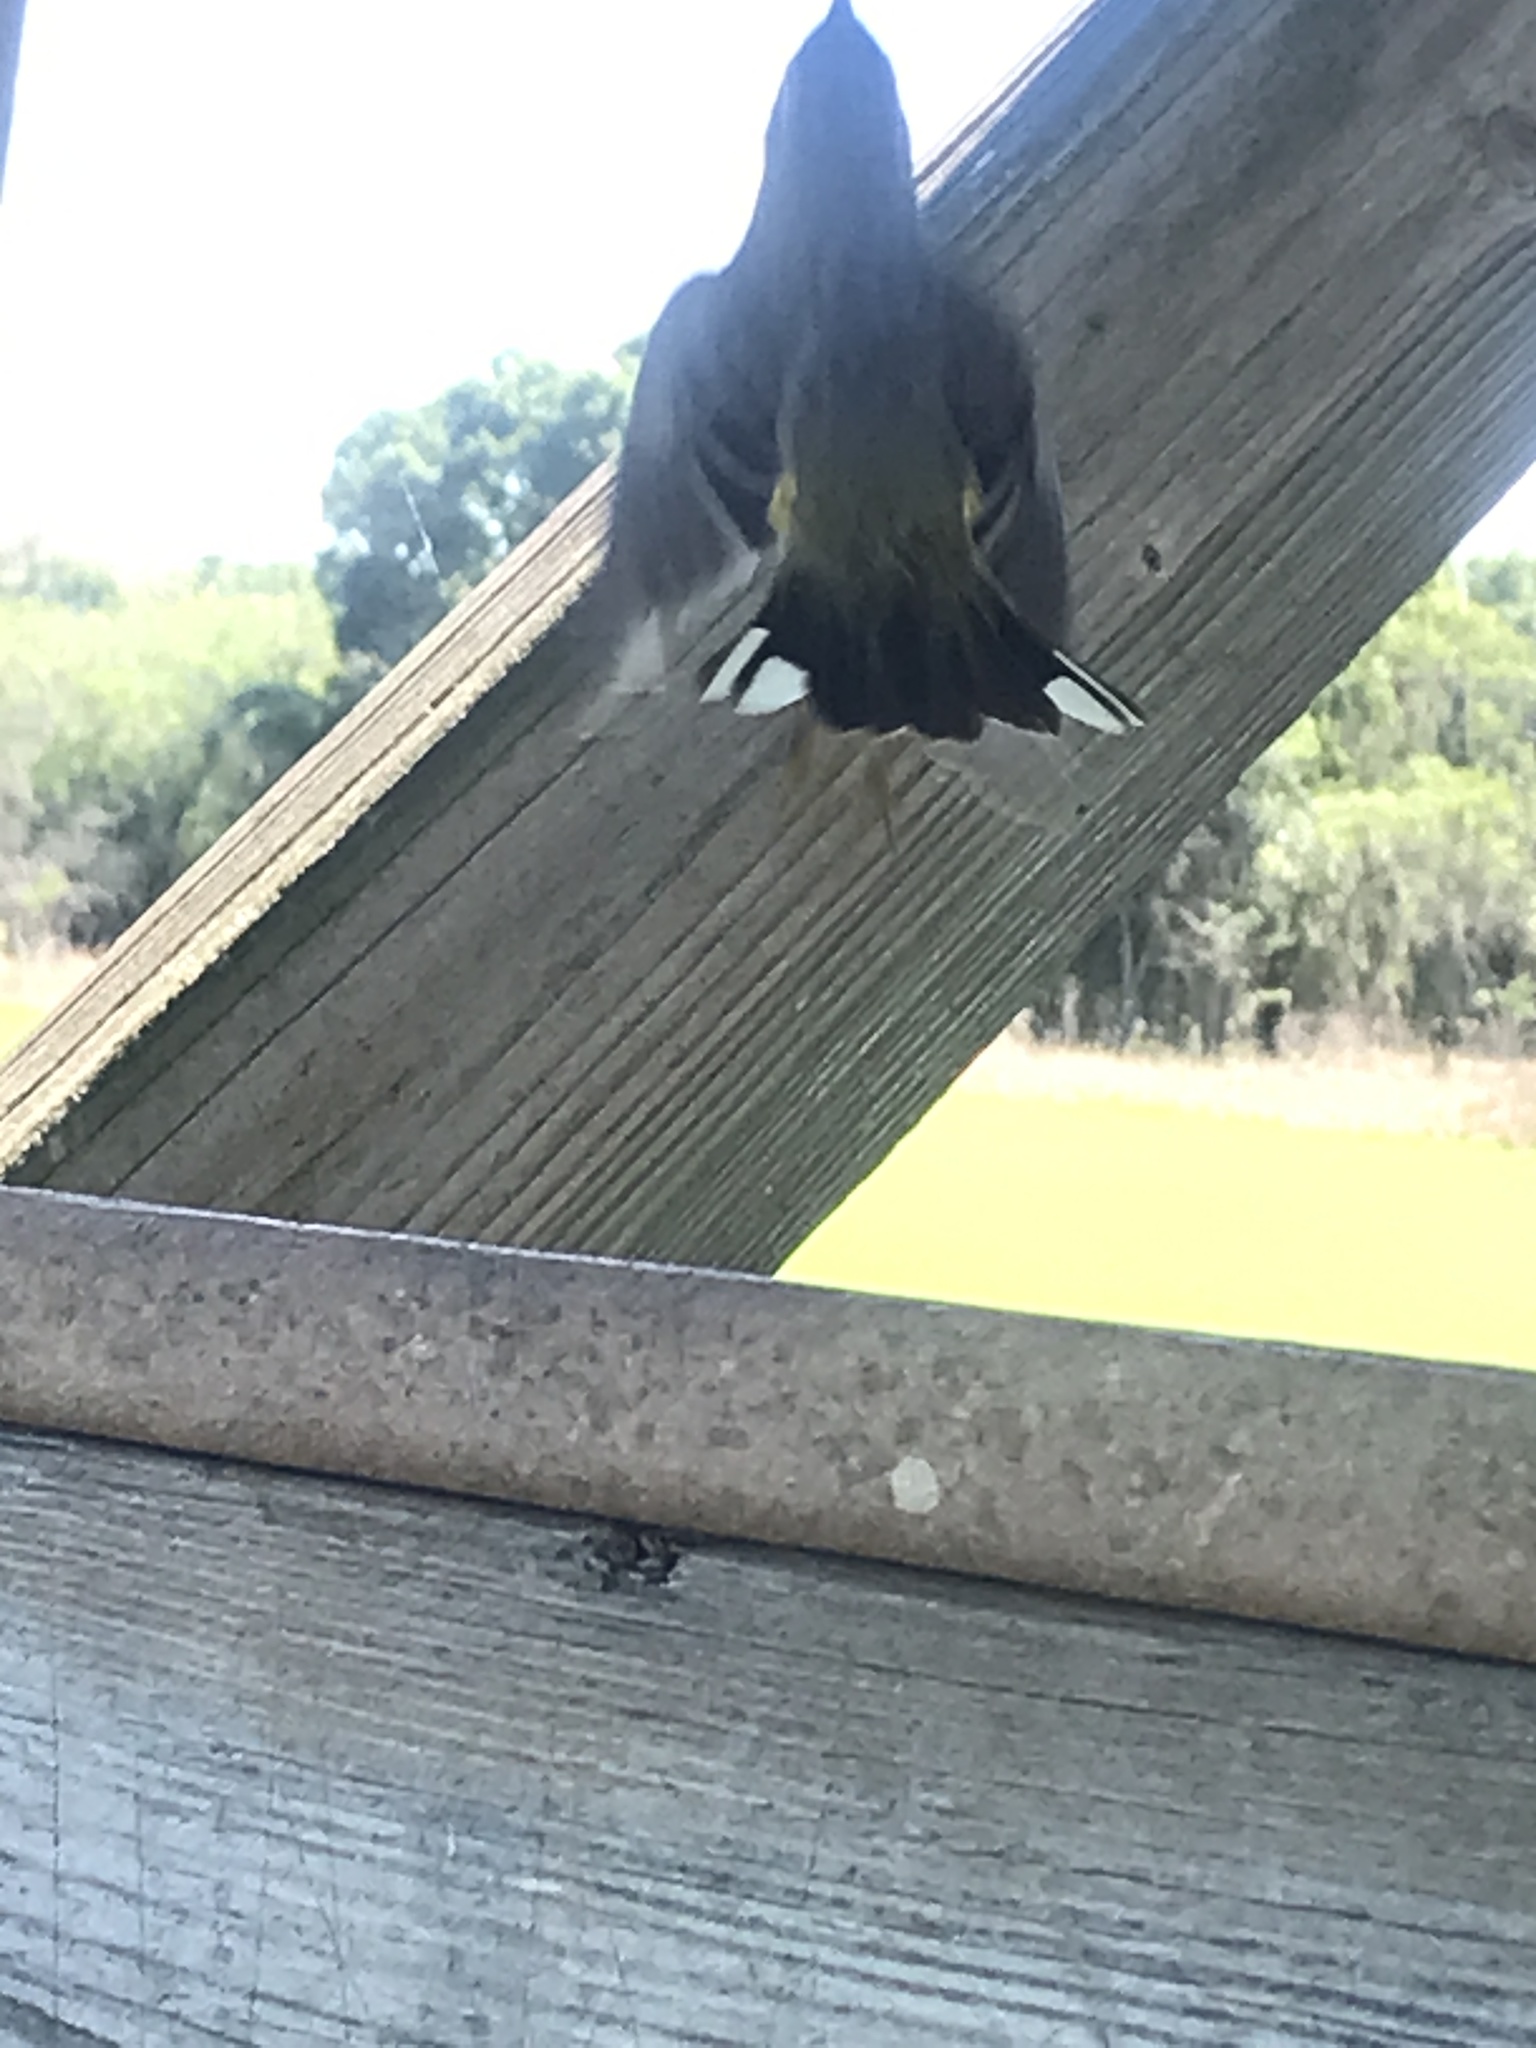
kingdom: Animalia
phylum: Chordata
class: Aves
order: Passeriformes
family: Parulidae
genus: Setophaga
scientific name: Setophaga palmarum
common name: Palm warbler
